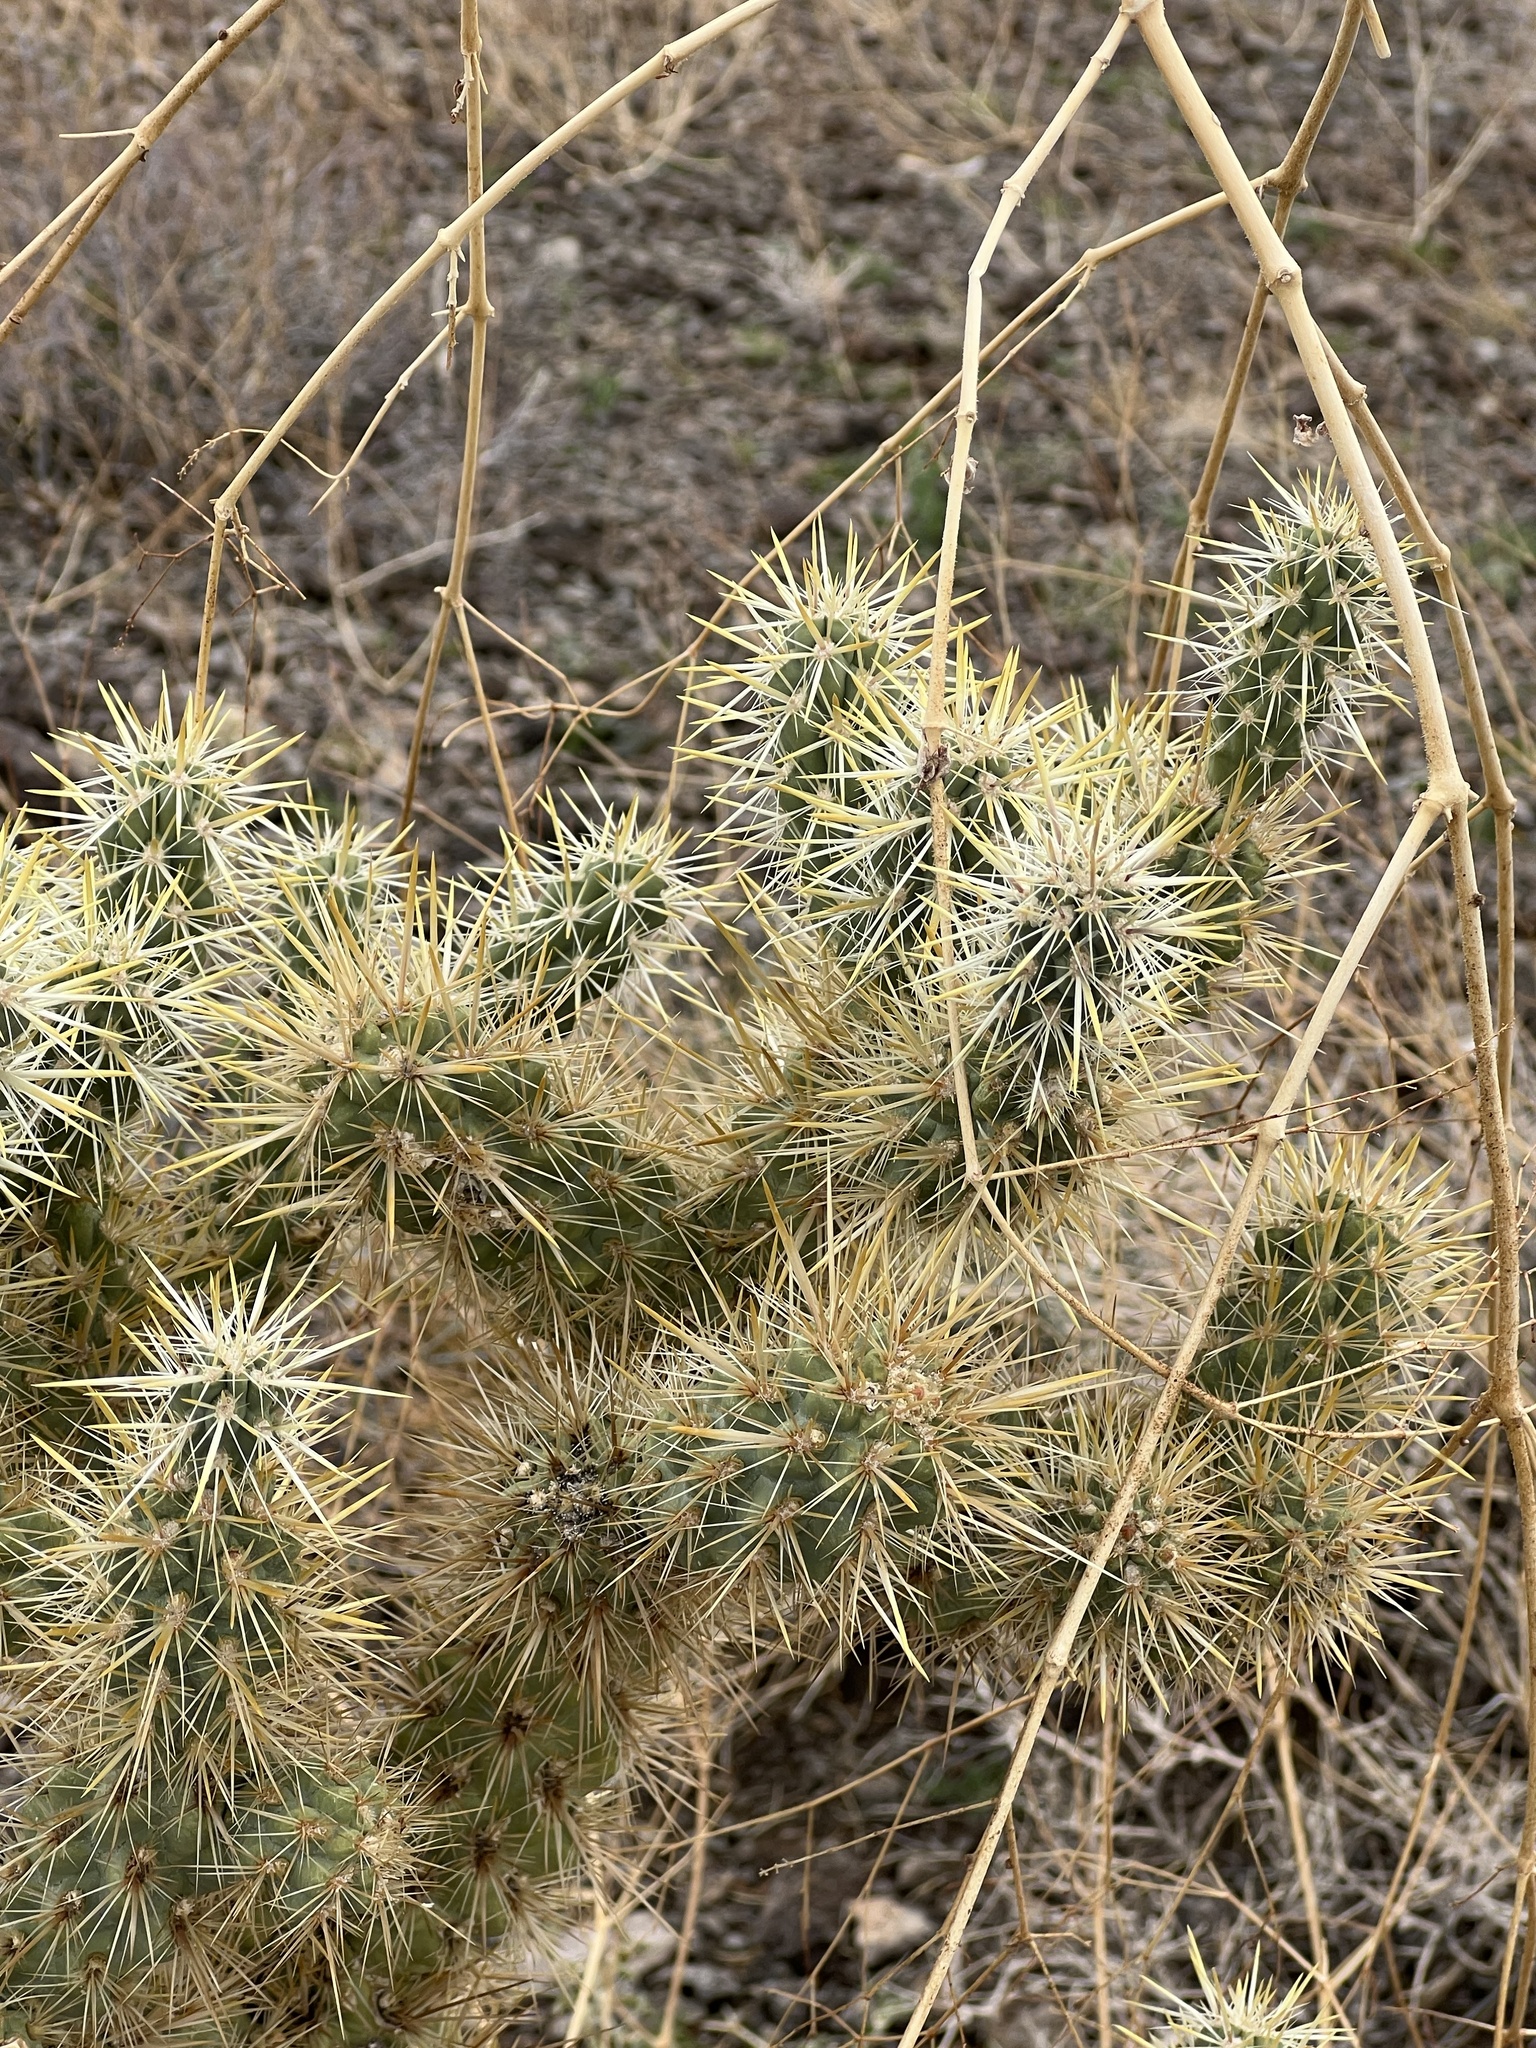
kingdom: Plantae
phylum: Tracheophyta
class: Magnoliopsida
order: Caryophyllales
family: Cactaceae
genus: Cylindropuntia
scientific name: Cylindropuntia acanthocarpa
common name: Buckhorn cholla
